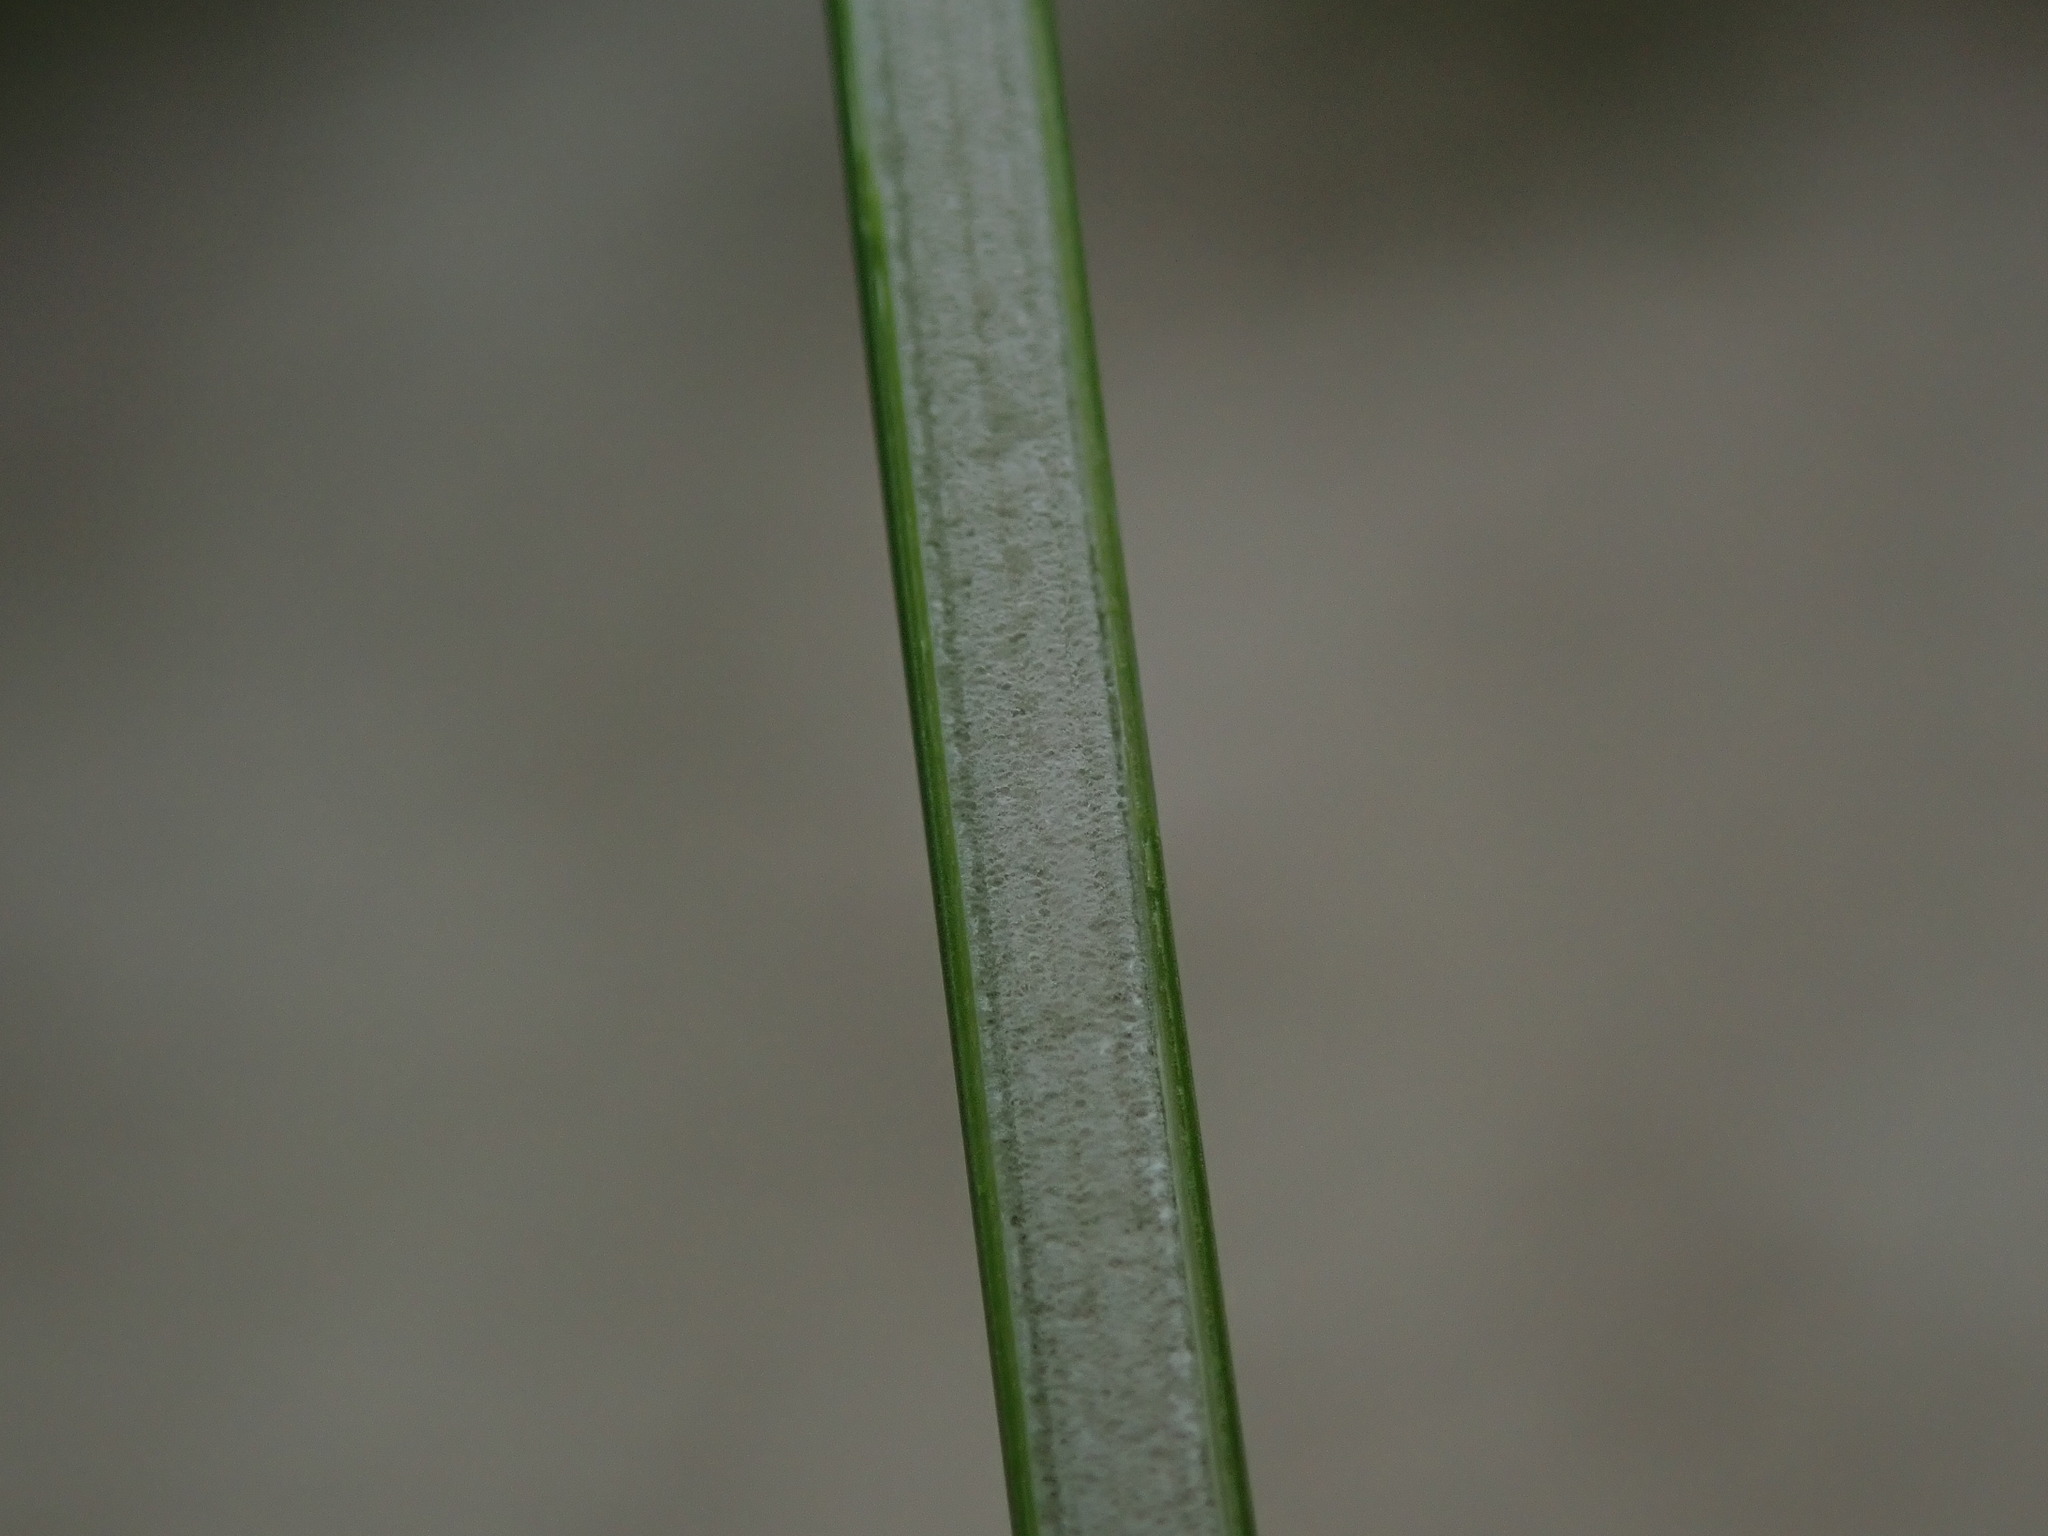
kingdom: Plantae
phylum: Tracheophyta
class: Liliopsida
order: Poales
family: Juncaceae
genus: Juncus
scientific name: Juncus effusus
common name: Soft rush
